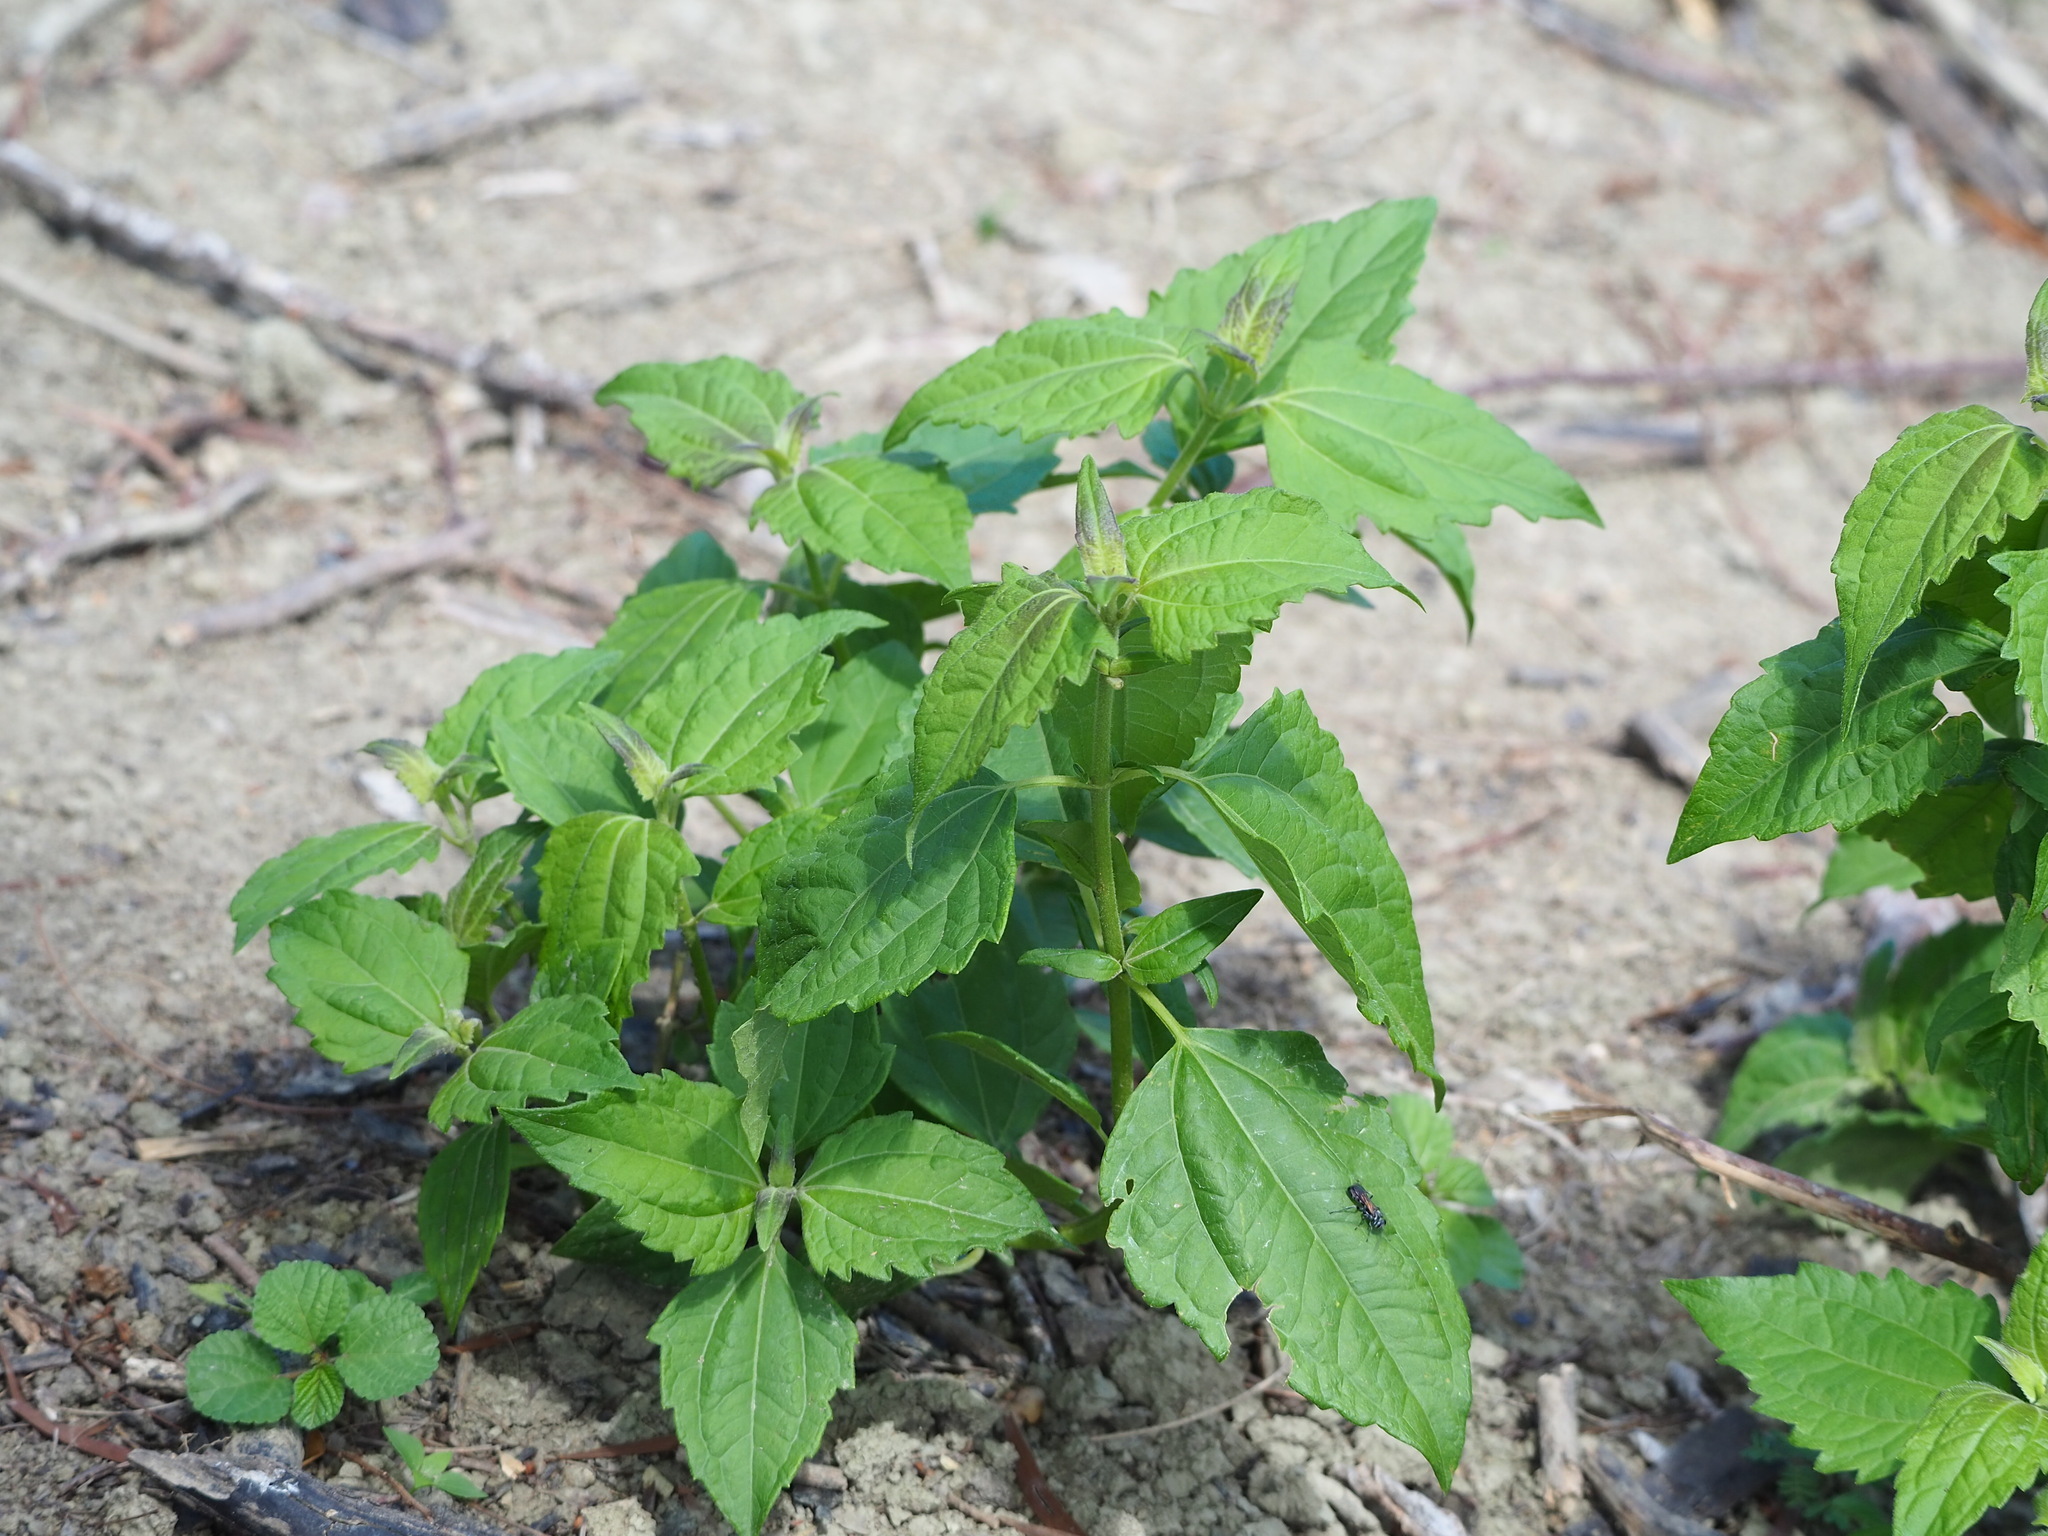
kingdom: Plantae
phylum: Tracheophyta
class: Magnoliopsida
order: Asterales
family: Asteraceae
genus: Chromolaena
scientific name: Chromolaena odorata
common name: Siamweed
